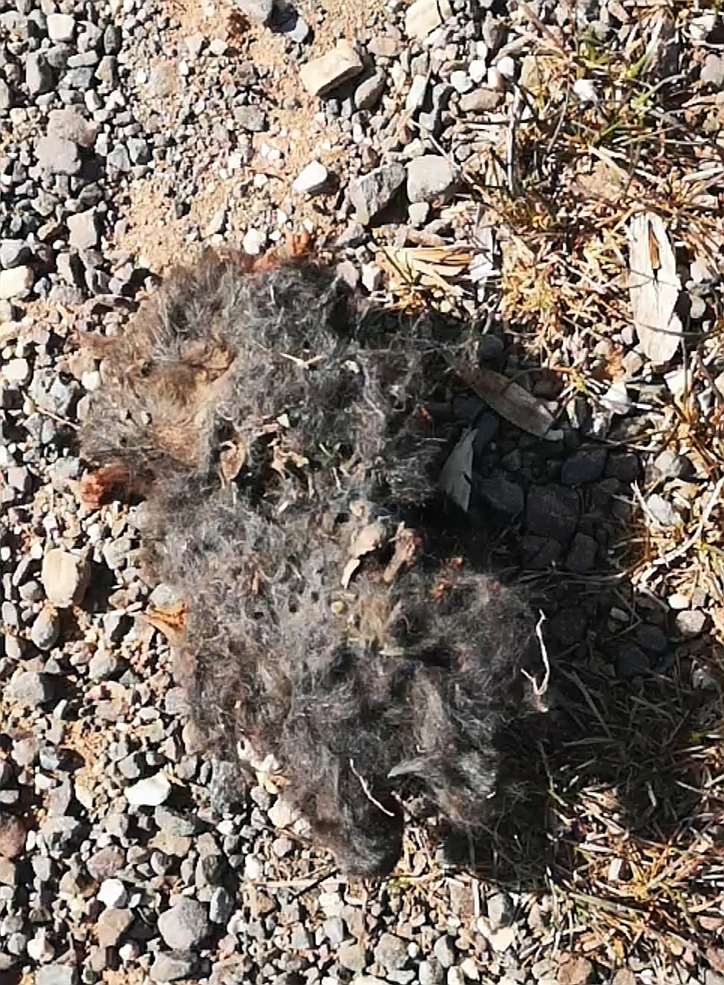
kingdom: Animalia
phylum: Chordata
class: Mammalia
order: Soricomorpha
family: Talpidae
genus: Talpa
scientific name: Talpa europaea
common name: European mole
